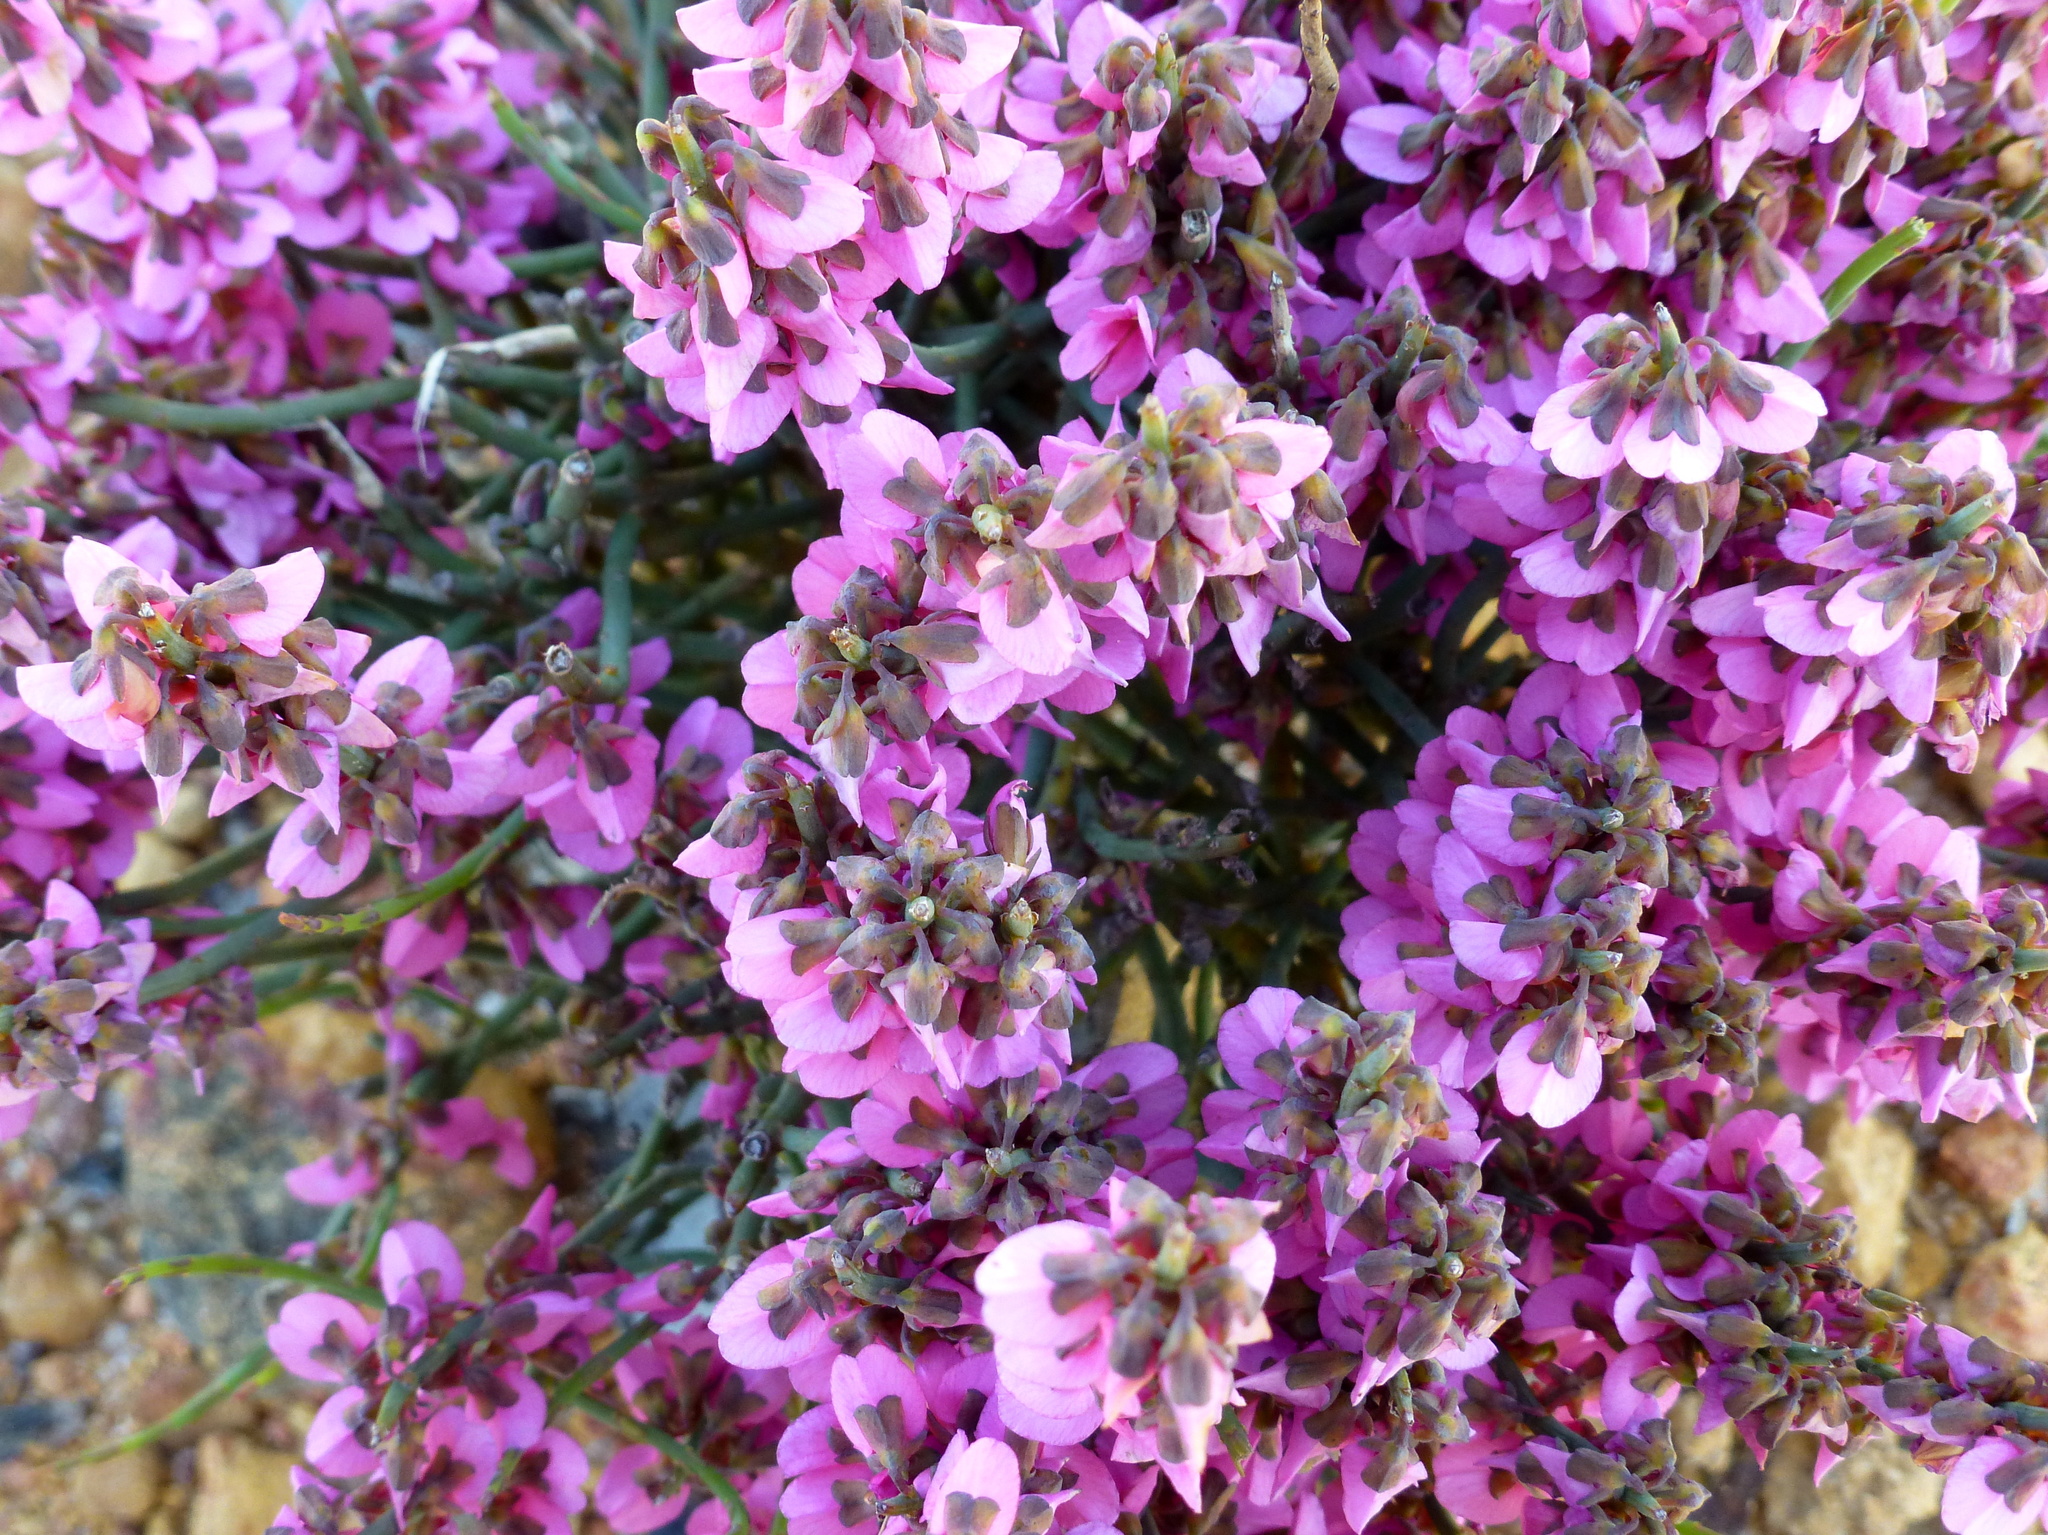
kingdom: Plantae
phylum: Tracheophyta
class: Magnoliopsida
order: Fabales
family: Fabaceae
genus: Sphaerolobium
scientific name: Sphaerolobium pulchellum
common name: Reed pea
